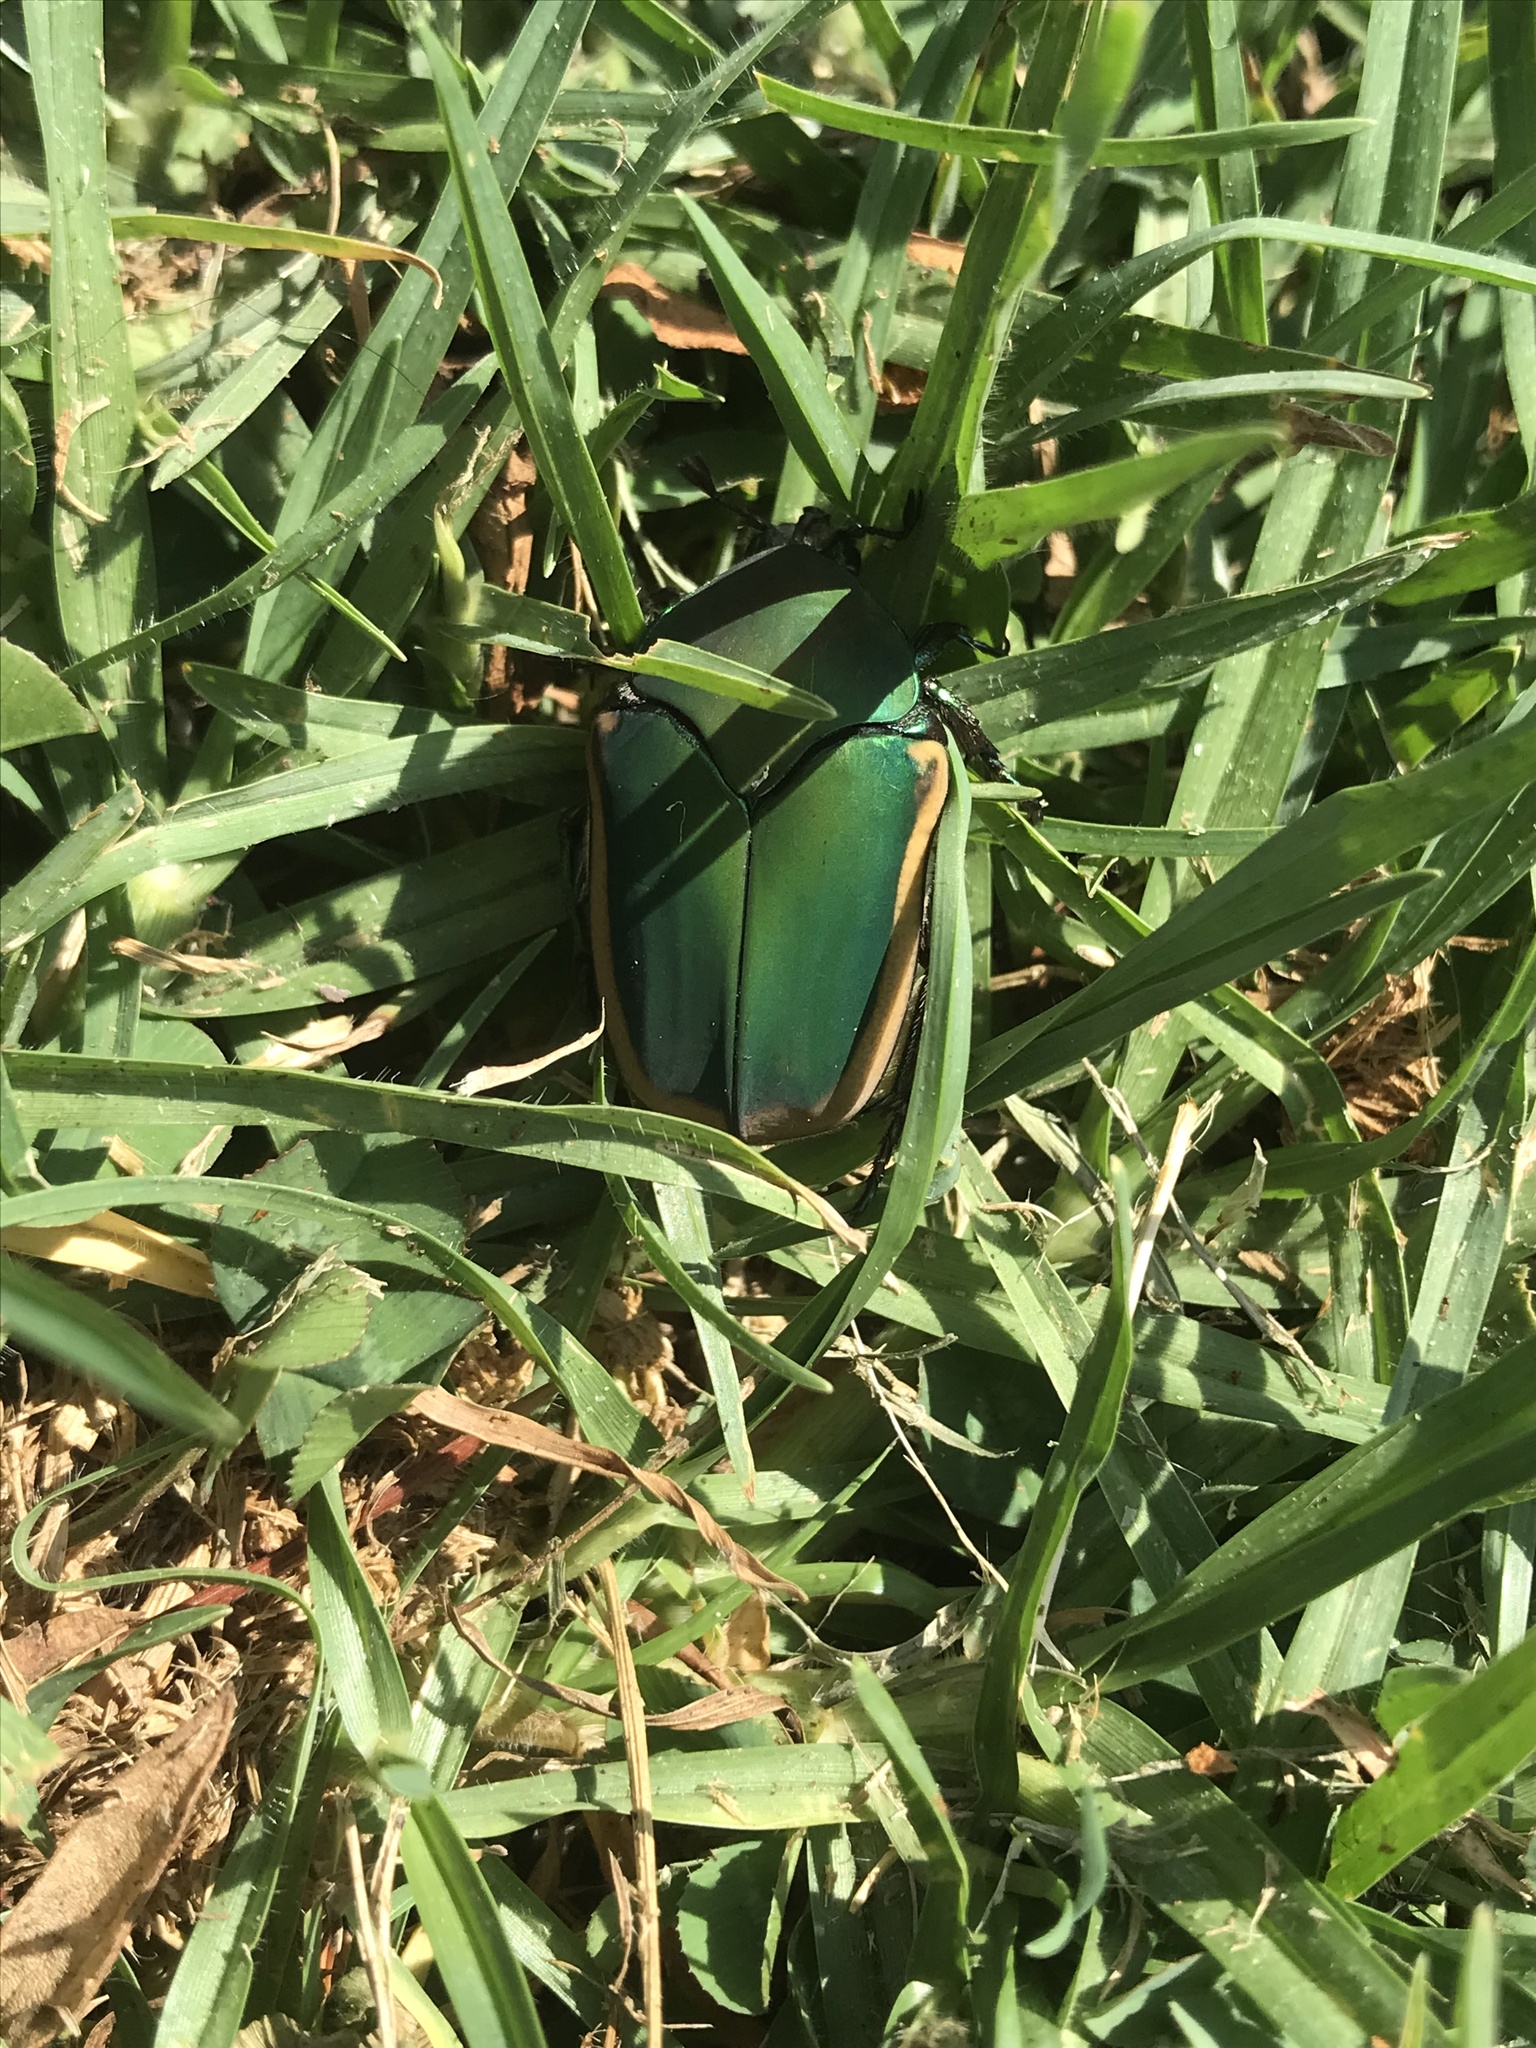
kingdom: Animalia
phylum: Arthropoda
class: Insecta
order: Coleoptera
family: Scarabaeidae
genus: Cotinis
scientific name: Cotinis mutabilis
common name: Figeater beetle
